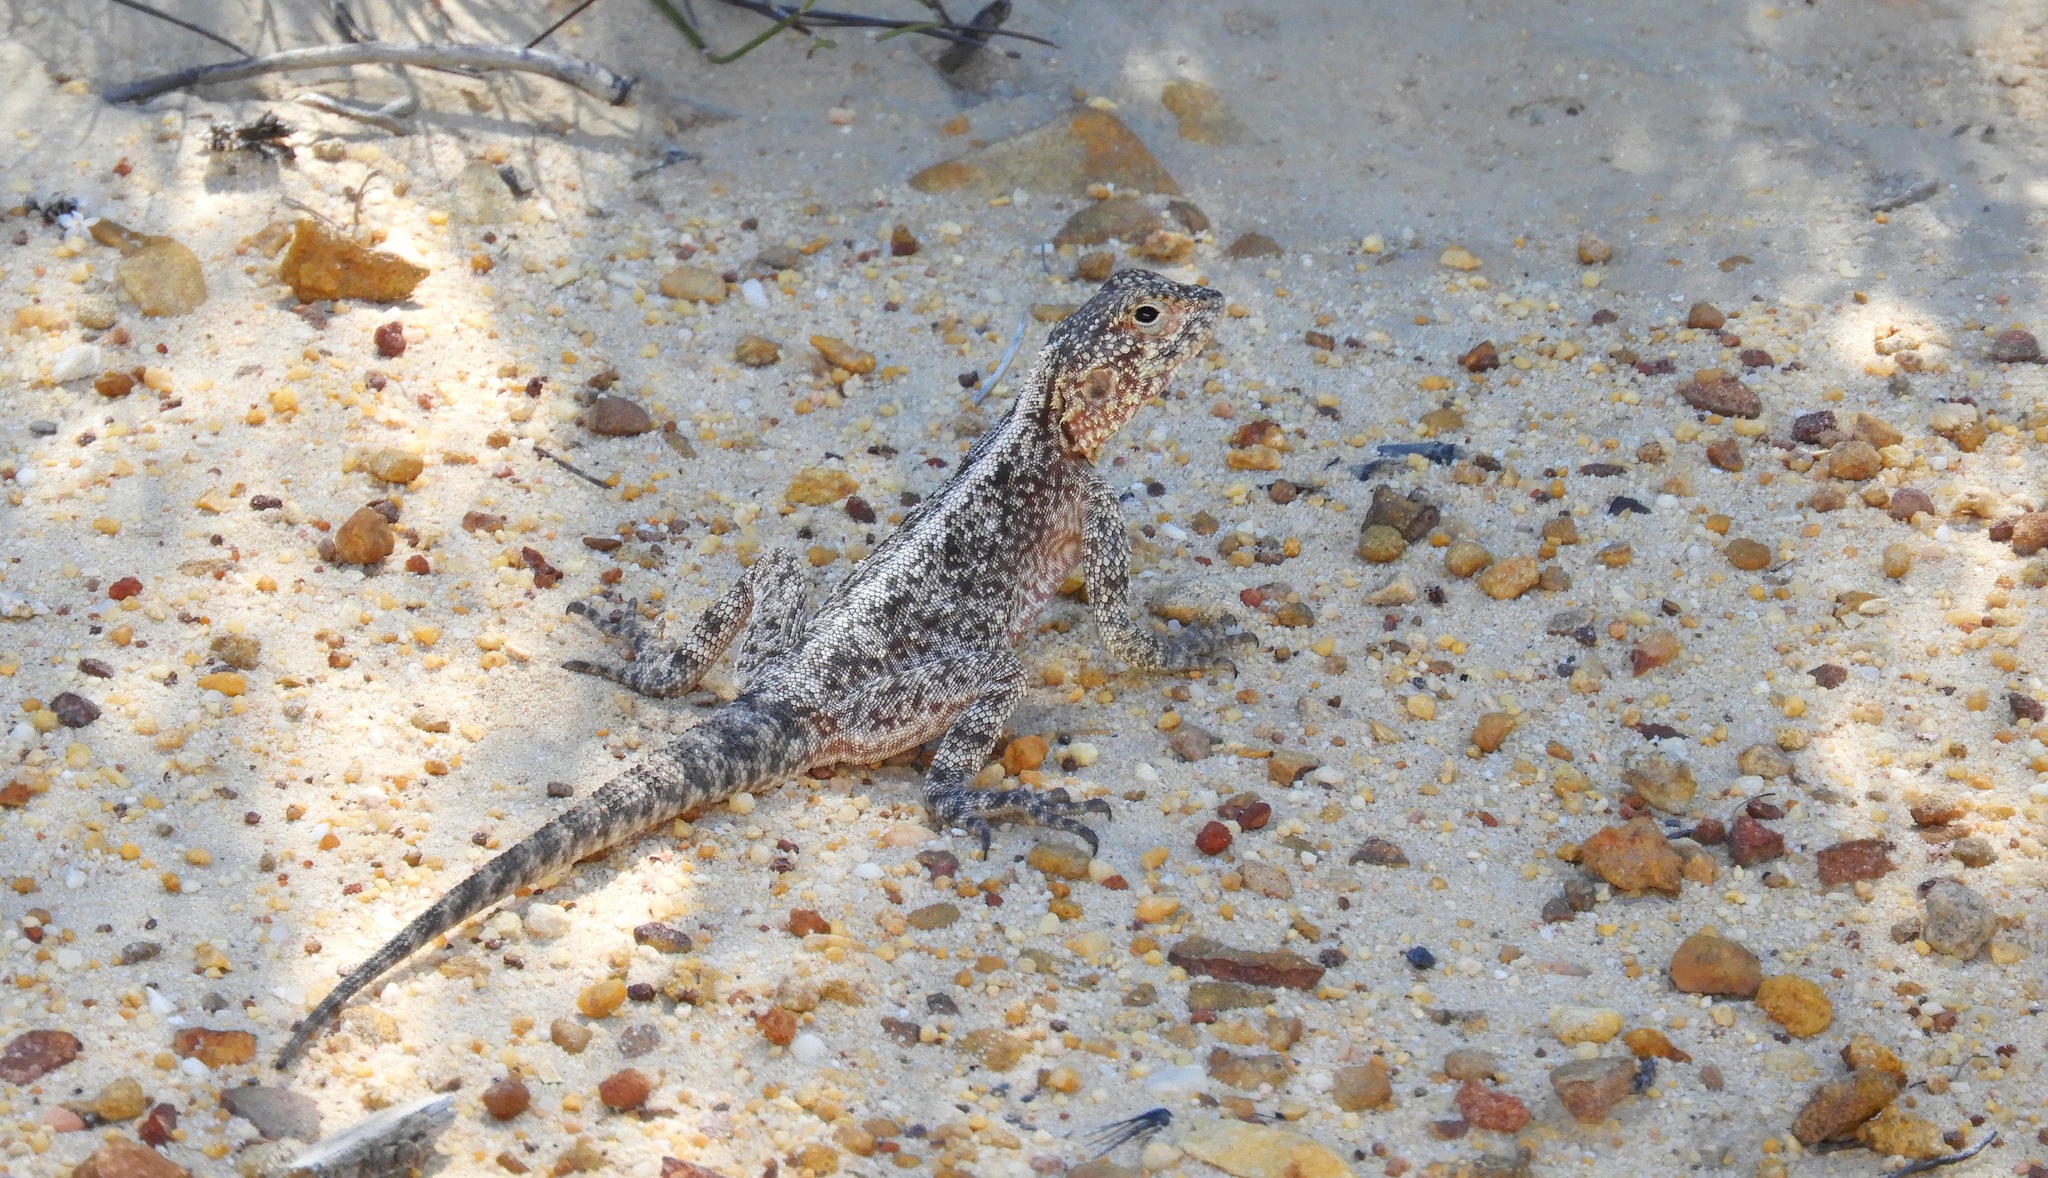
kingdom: Animalia
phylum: Chordata
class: Squamata
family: Agamidae
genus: Agama
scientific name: Agama atra
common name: Southern african rock agama
